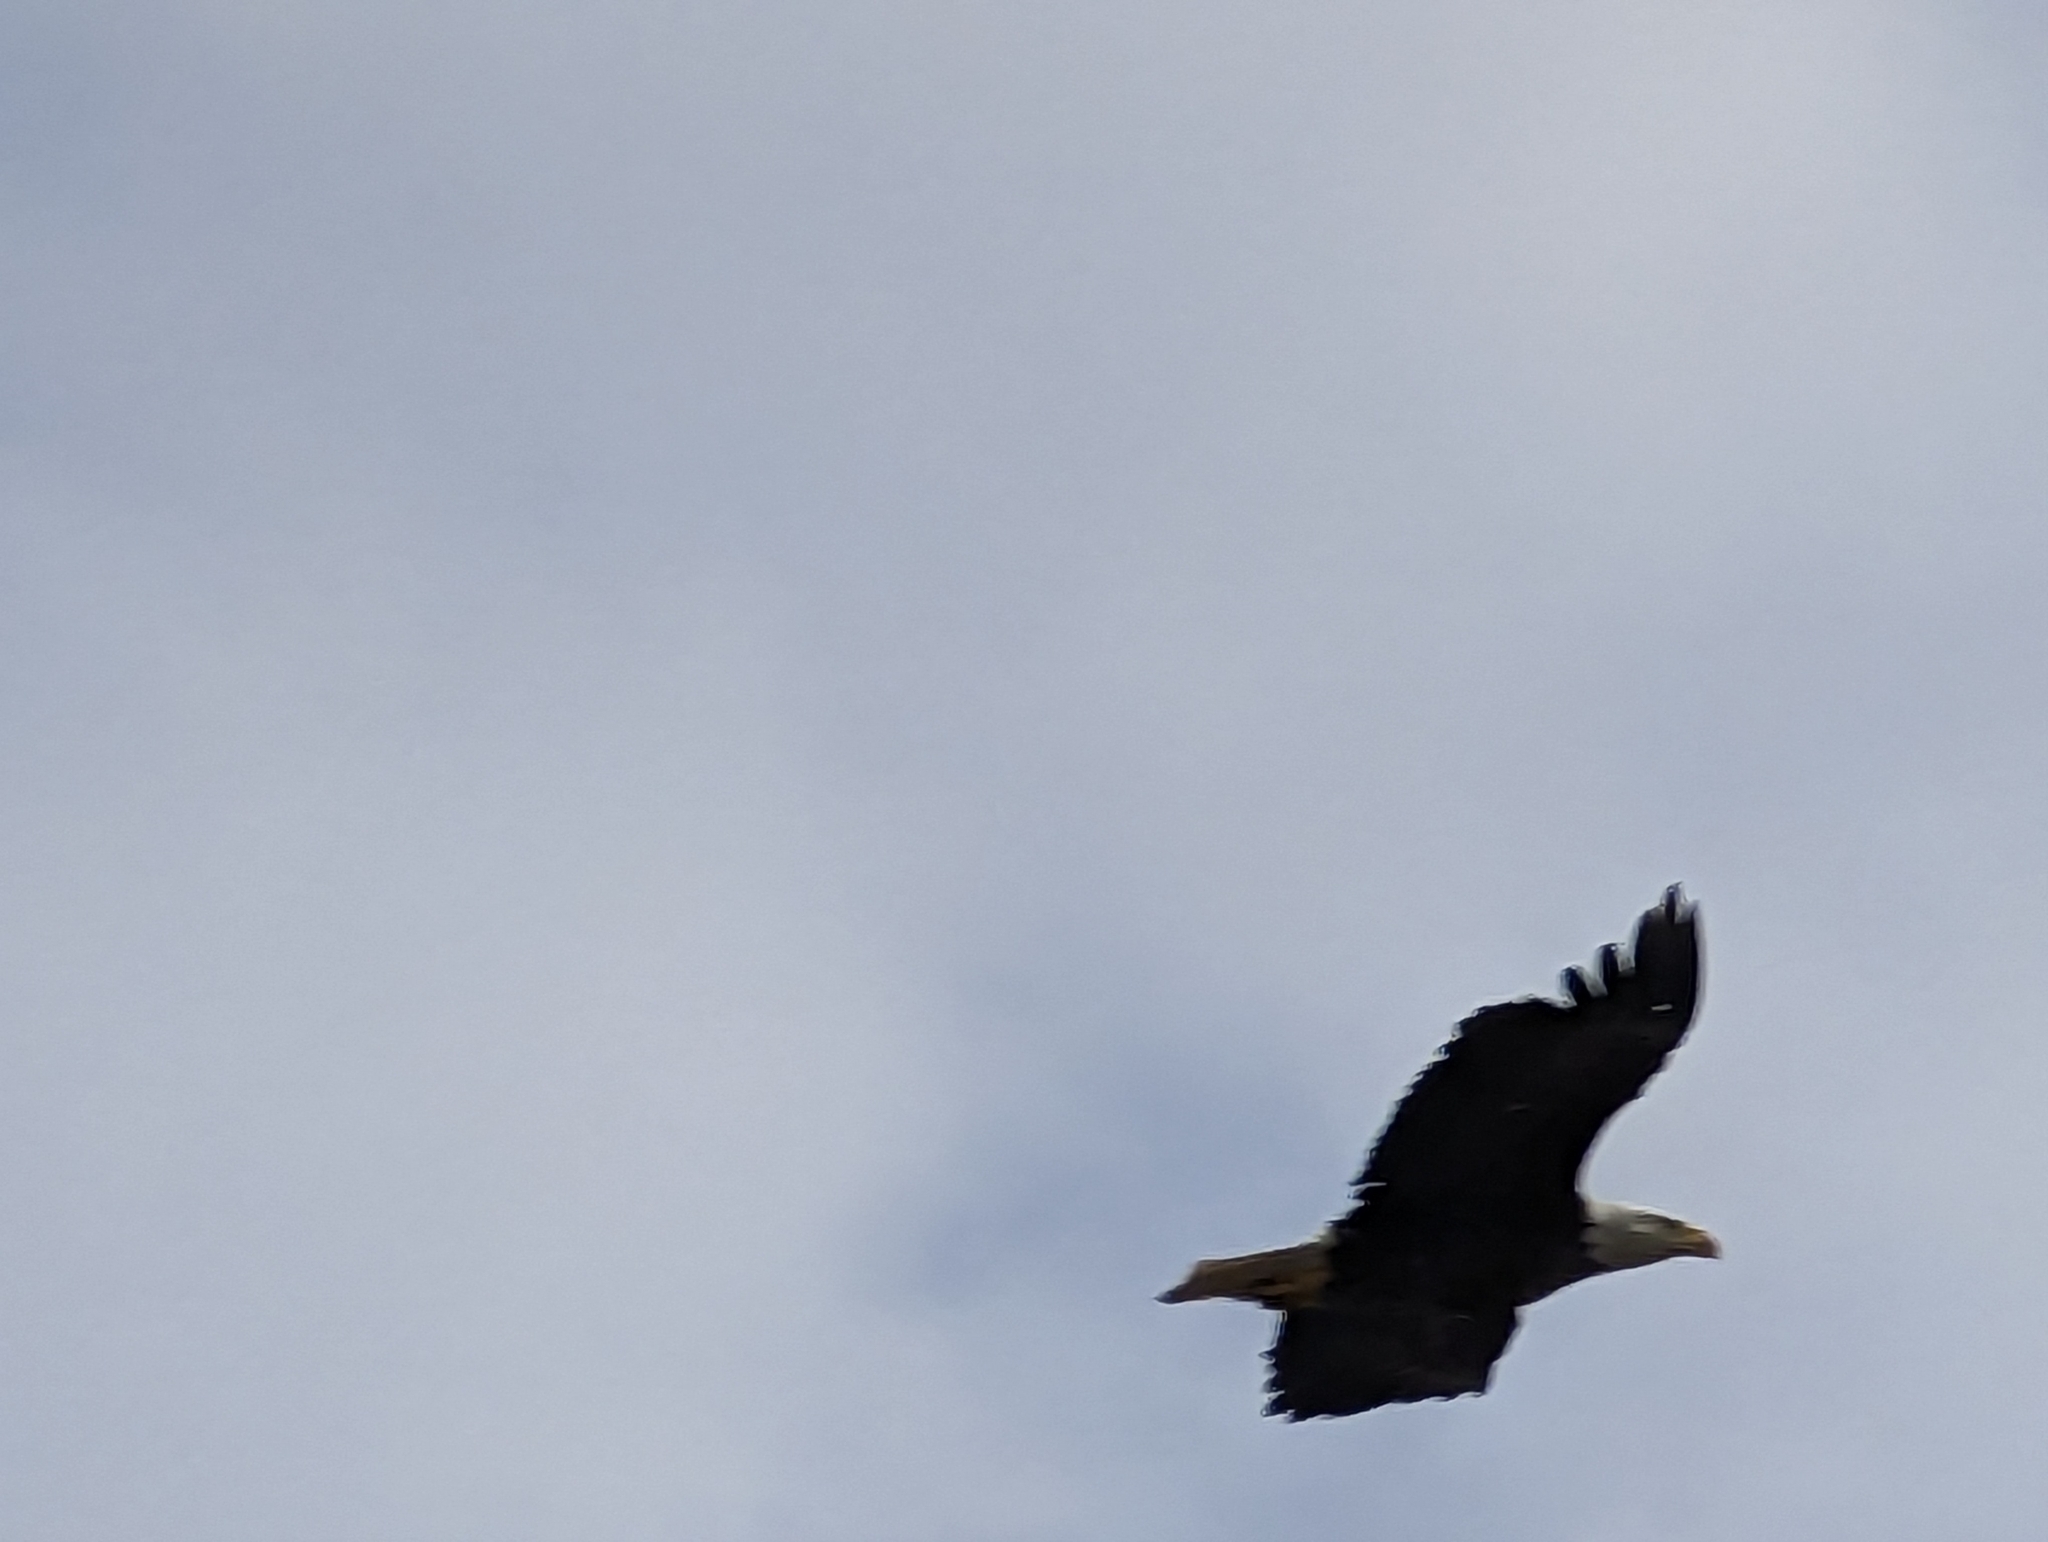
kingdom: Animalia
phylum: Chordata
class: Aves
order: Accipitriformes
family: Accipitridae
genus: Haliaeetus
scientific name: Haliaeetus leucocephalus
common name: Bald eagle
